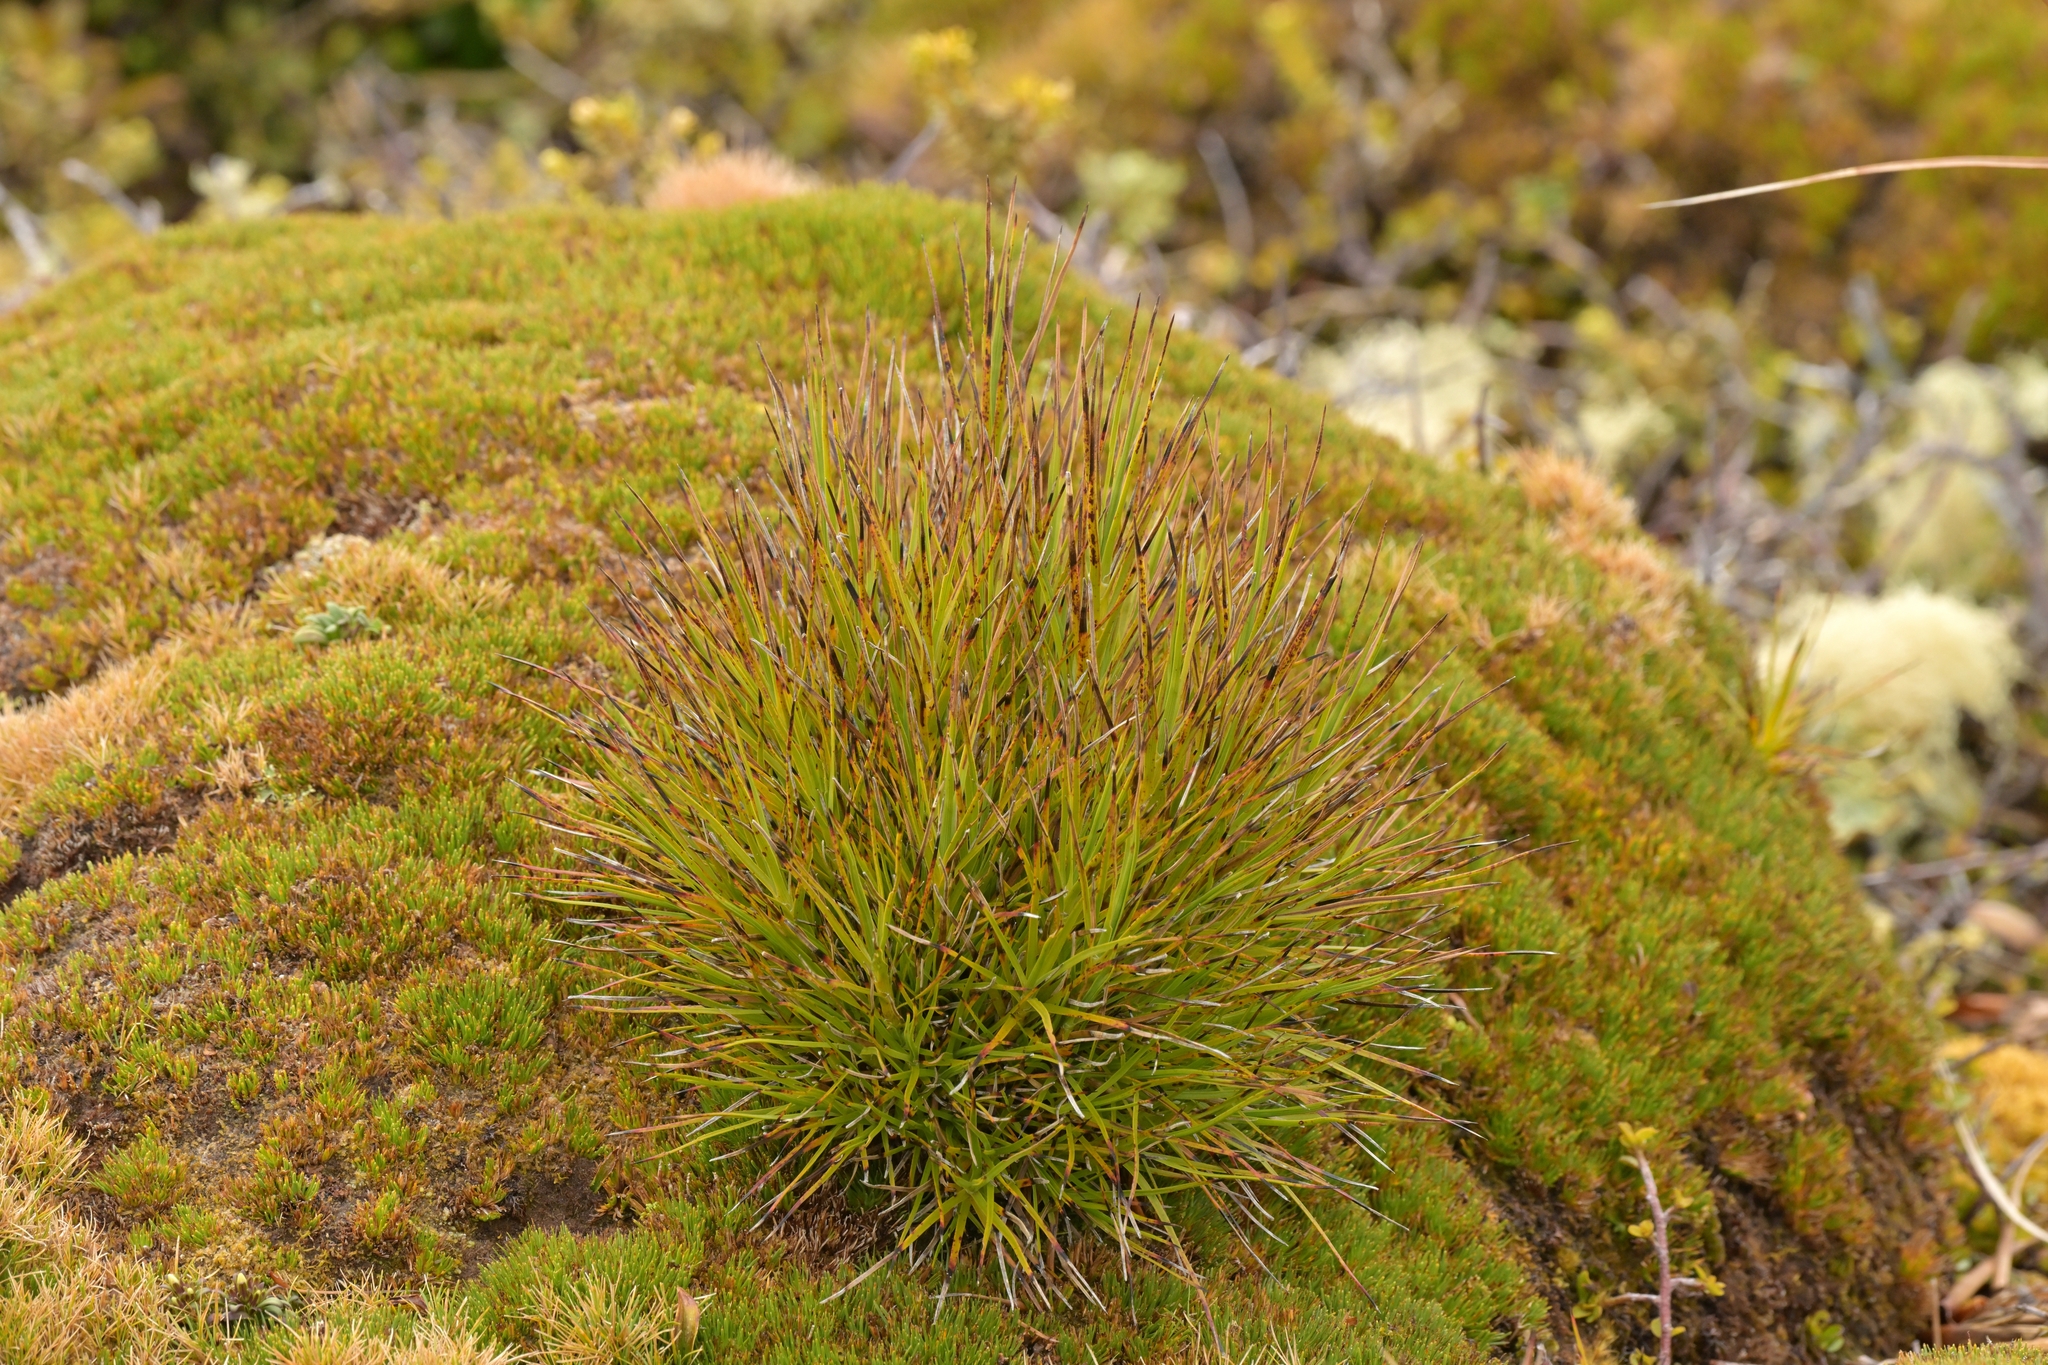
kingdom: Plantae
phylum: Tracheophyta
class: Magnoliopsida
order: Ericales
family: Ericaceae
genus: Dracophyllum
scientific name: Dracophyllum longifolium
